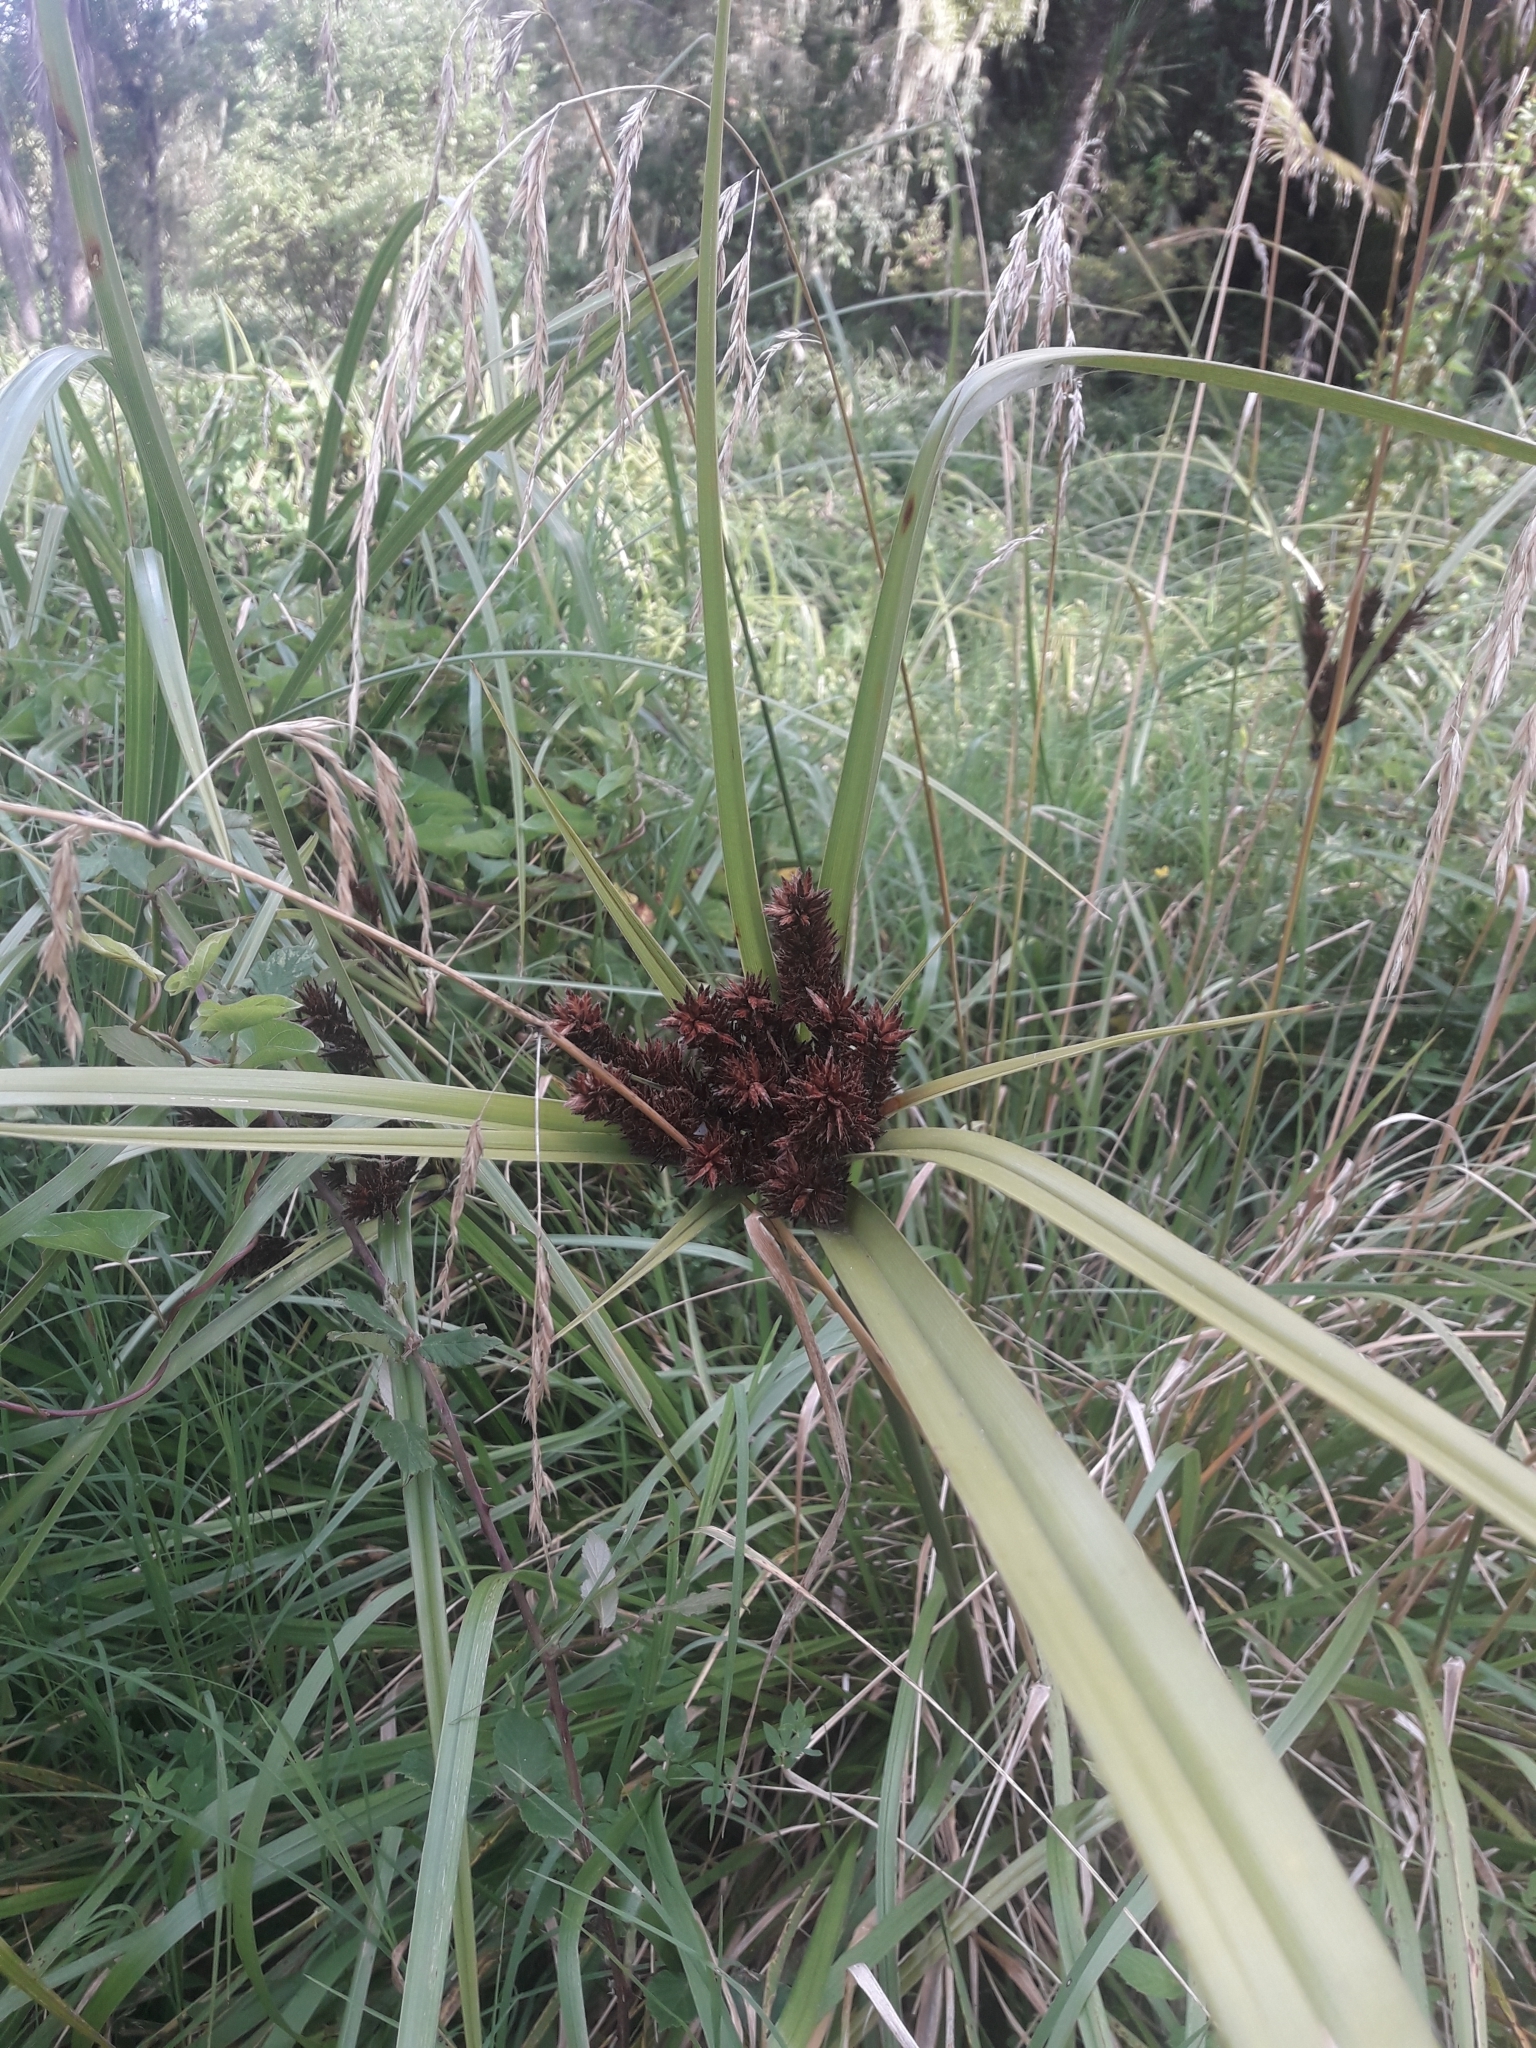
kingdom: Plantae
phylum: Tracheophyta
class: Liliopsida
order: Poales
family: Cyperaceae
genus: Cyperus
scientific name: Cyperus ustulatus
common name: Giant umbrella-sedge
